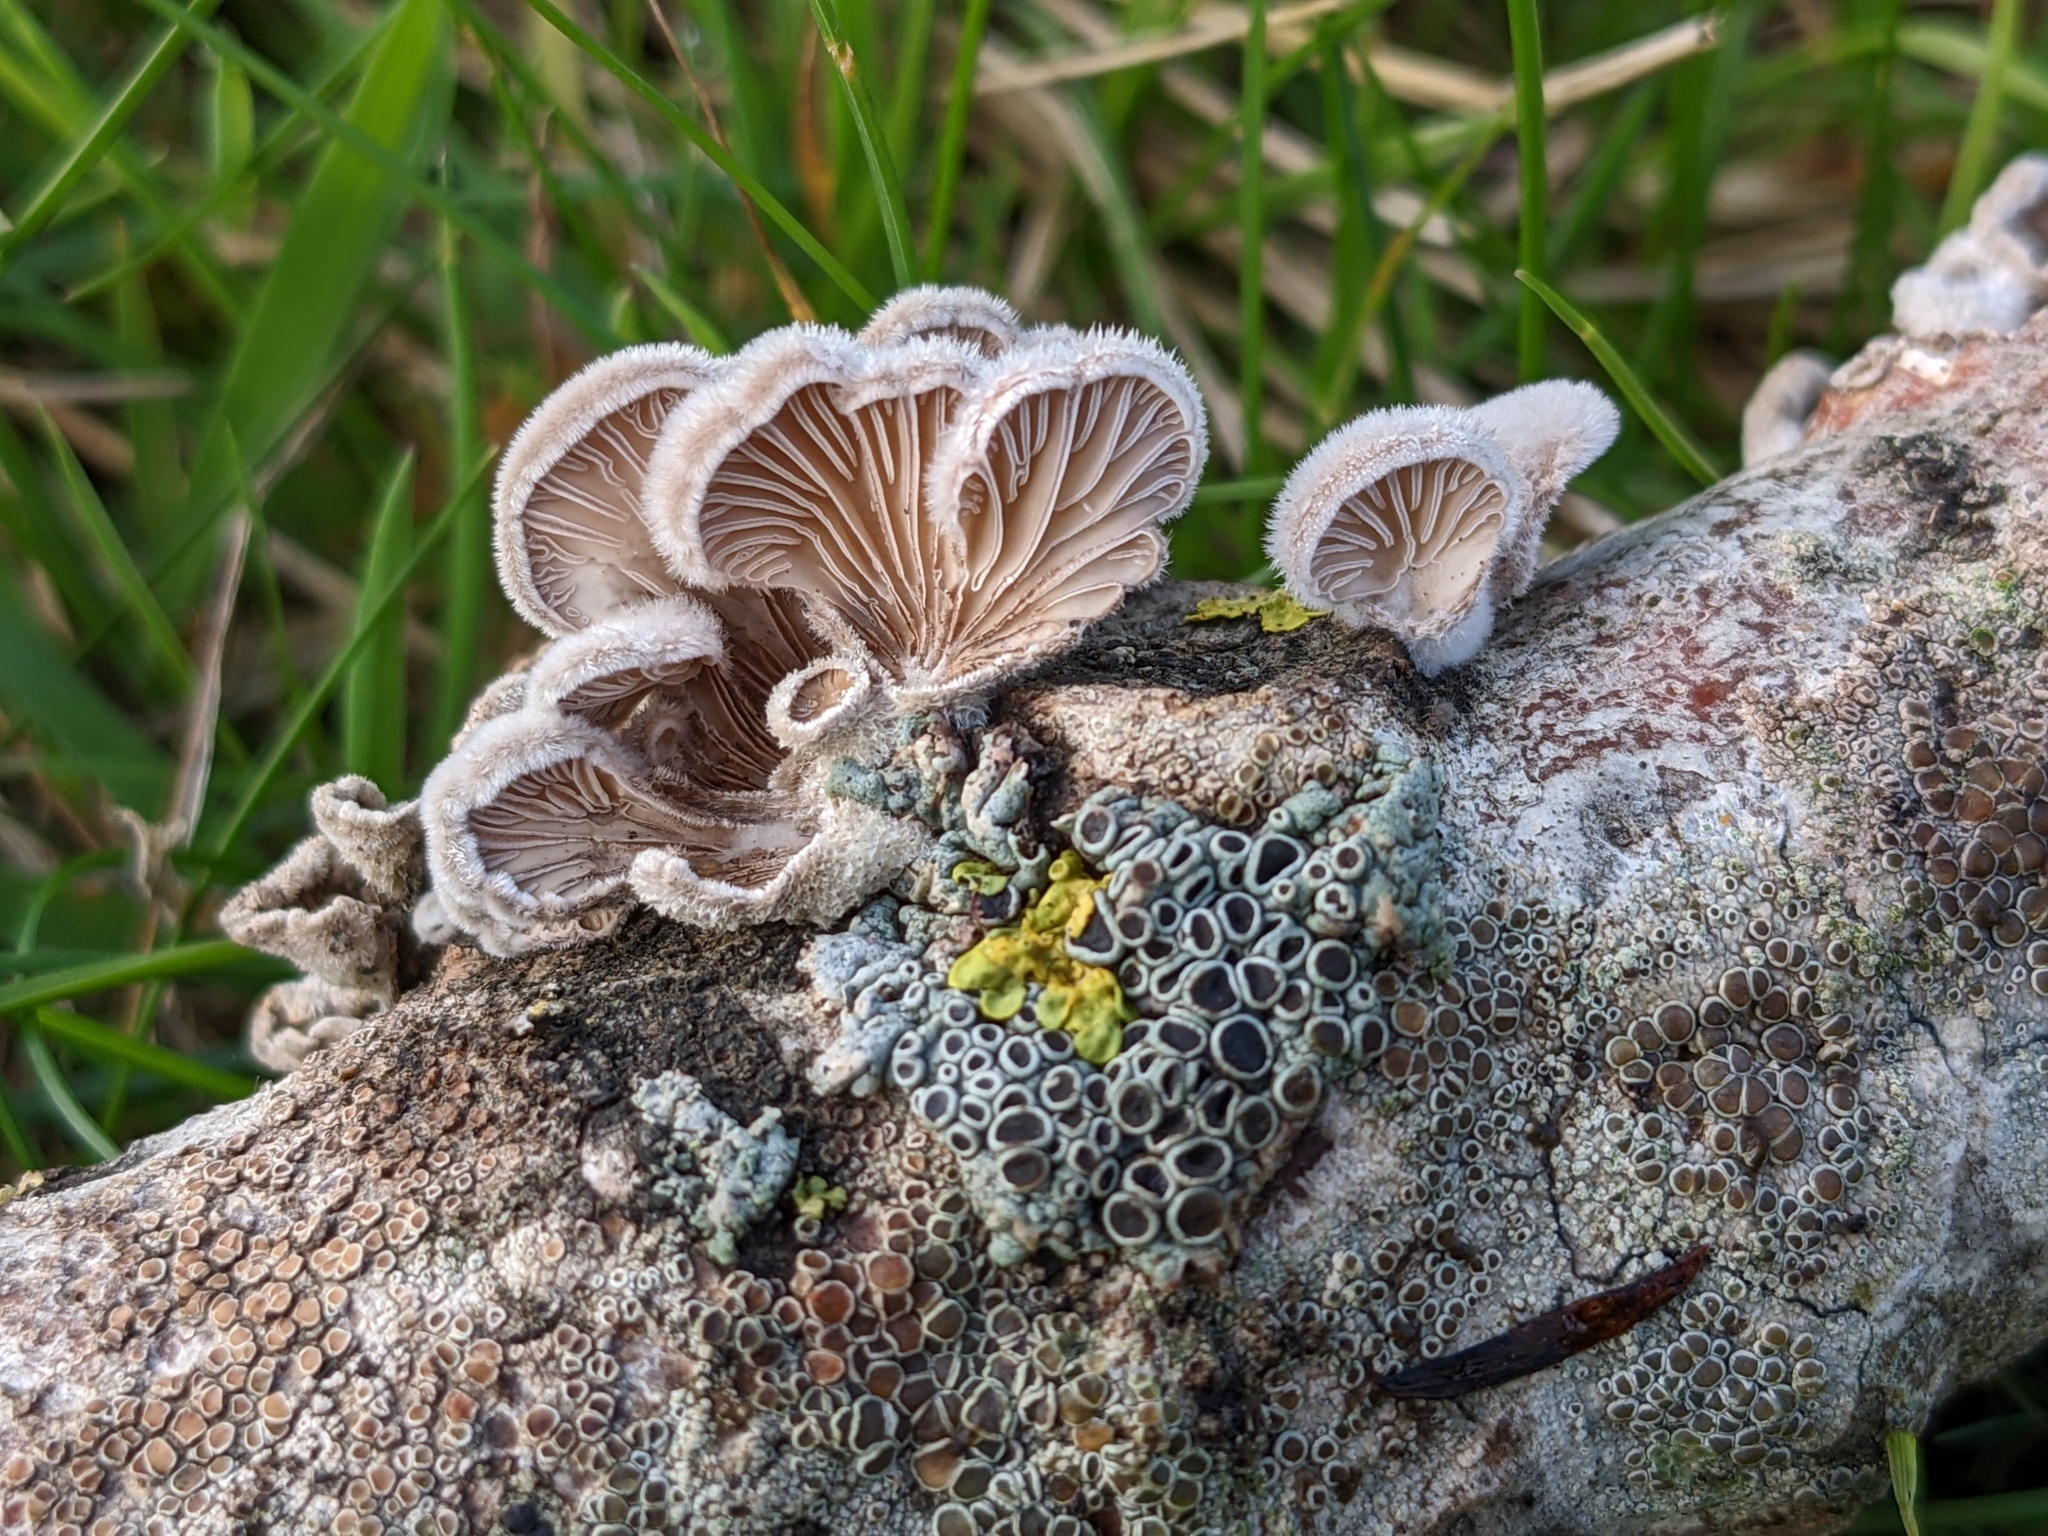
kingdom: Fungi
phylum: Basidiomycota
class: Agaricomycetes
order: Agaricales
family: Schizophyllaceae
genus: Schizophyllum
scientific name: Schizophyllum commune
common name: Common porecrust
